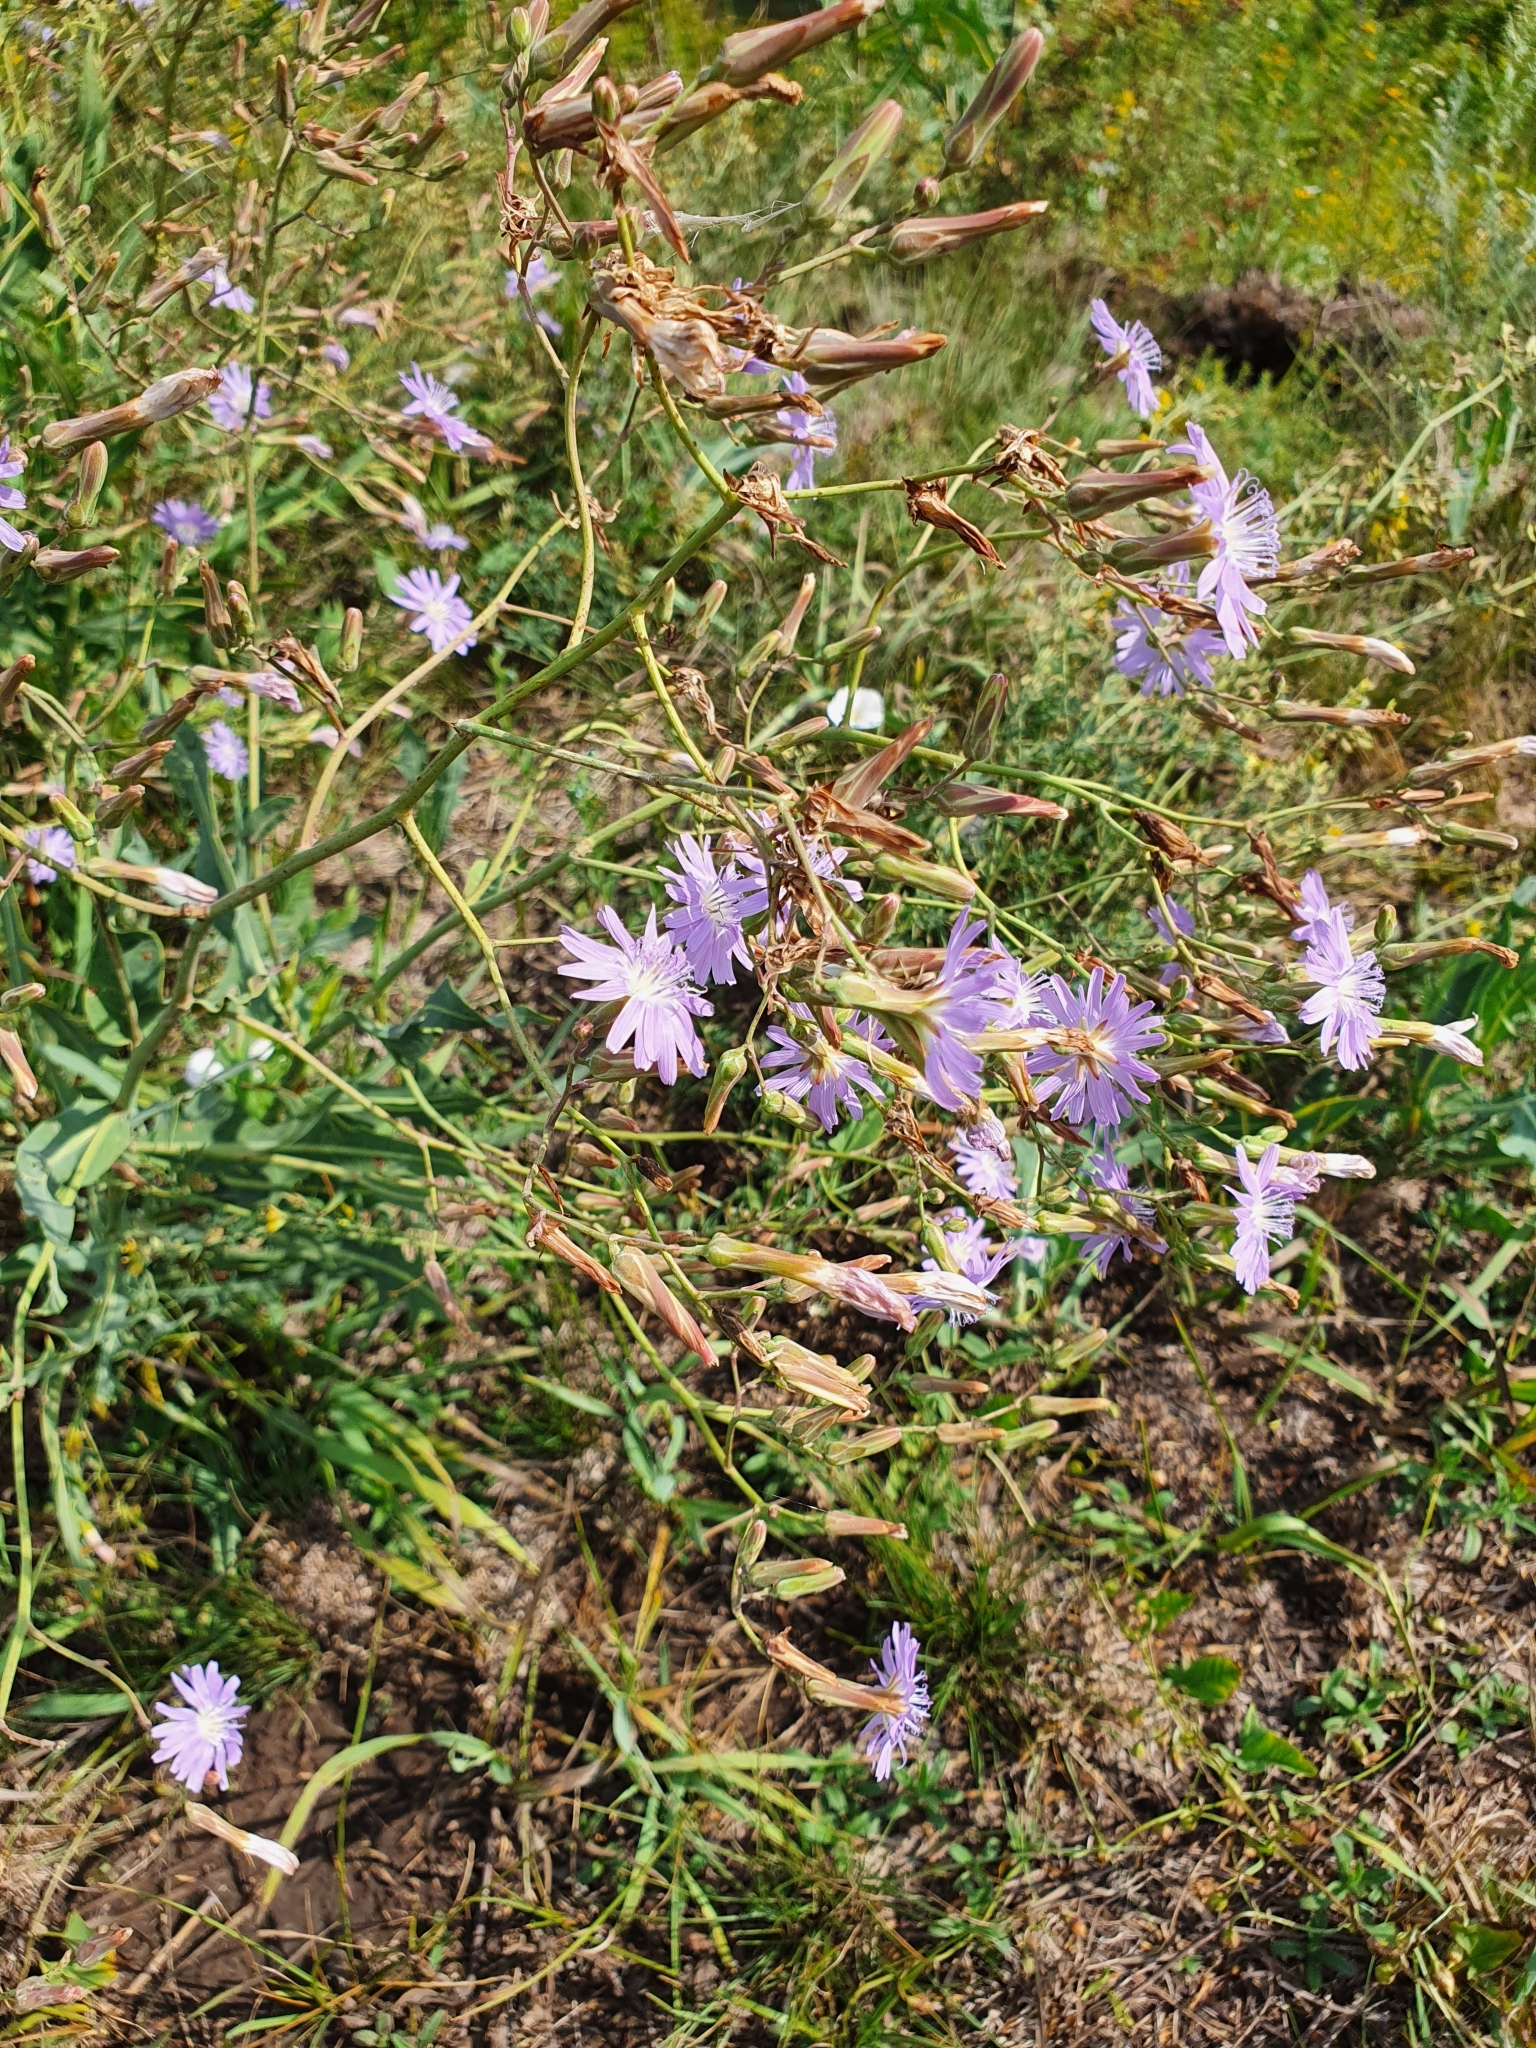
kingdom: Plantae
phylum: Tracheophyta
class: Magnoliopsida
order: Asterales
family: Asteraceae
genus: Lactuca
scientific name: Lactuca tatarica
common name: Blue lettuce
